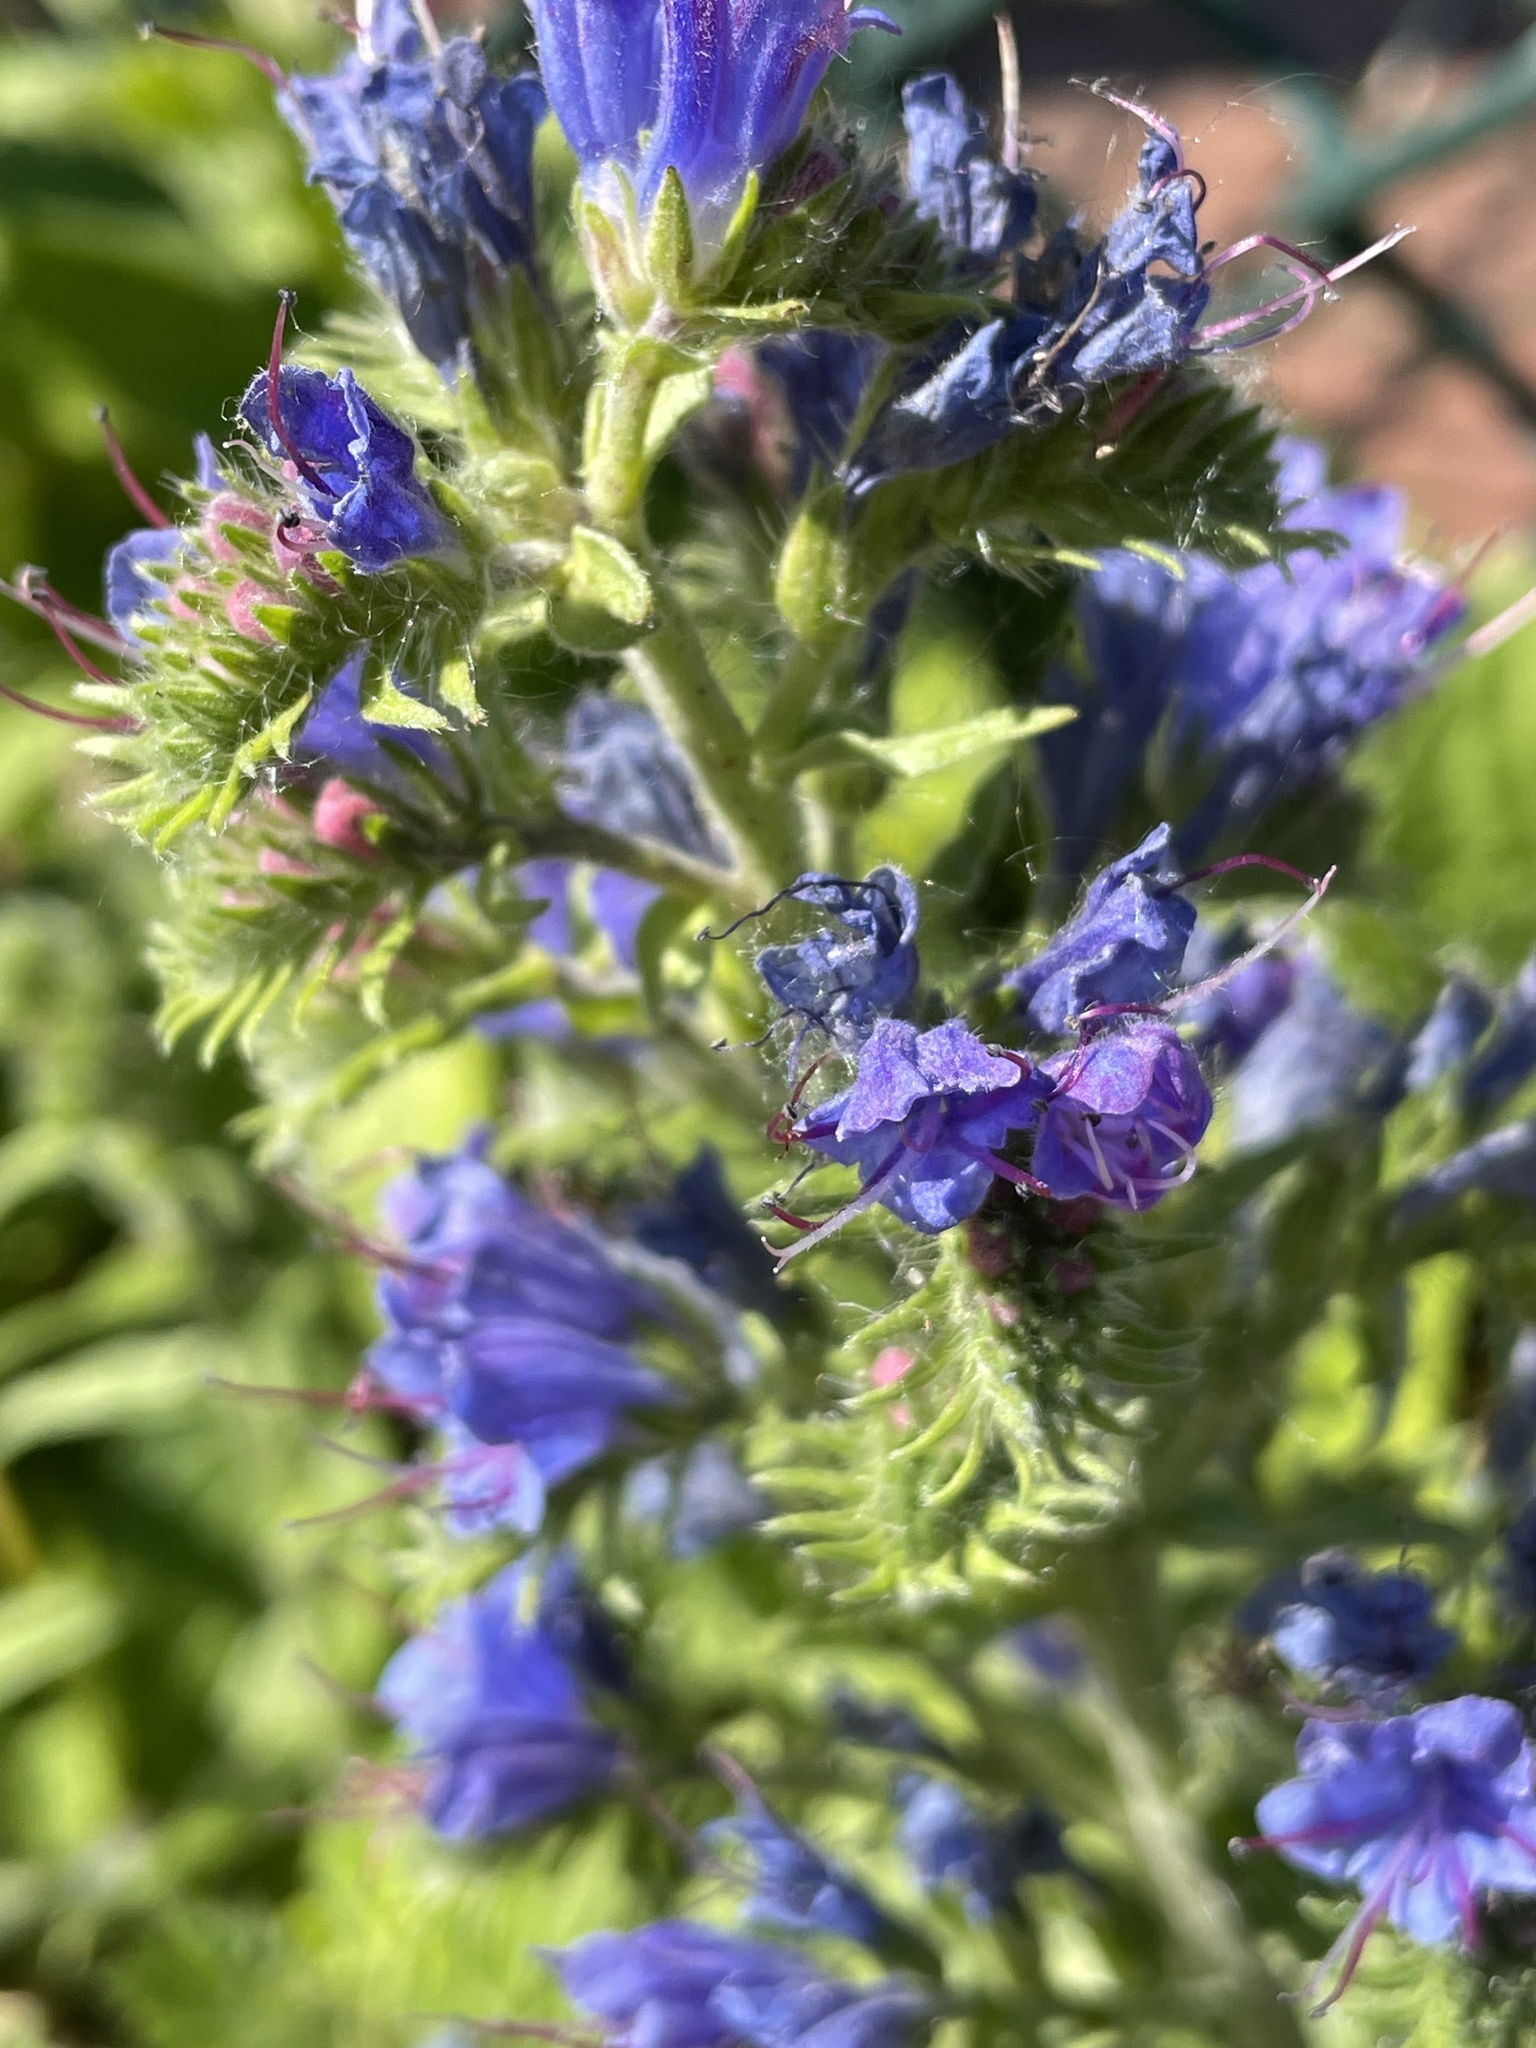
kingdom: Plantae
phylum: Tracheophyta
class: Magnoliopsida
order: Boraginales
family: Boraginaceae
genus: Echium
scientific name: Echium vulgare
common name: Common viper's bugloss
